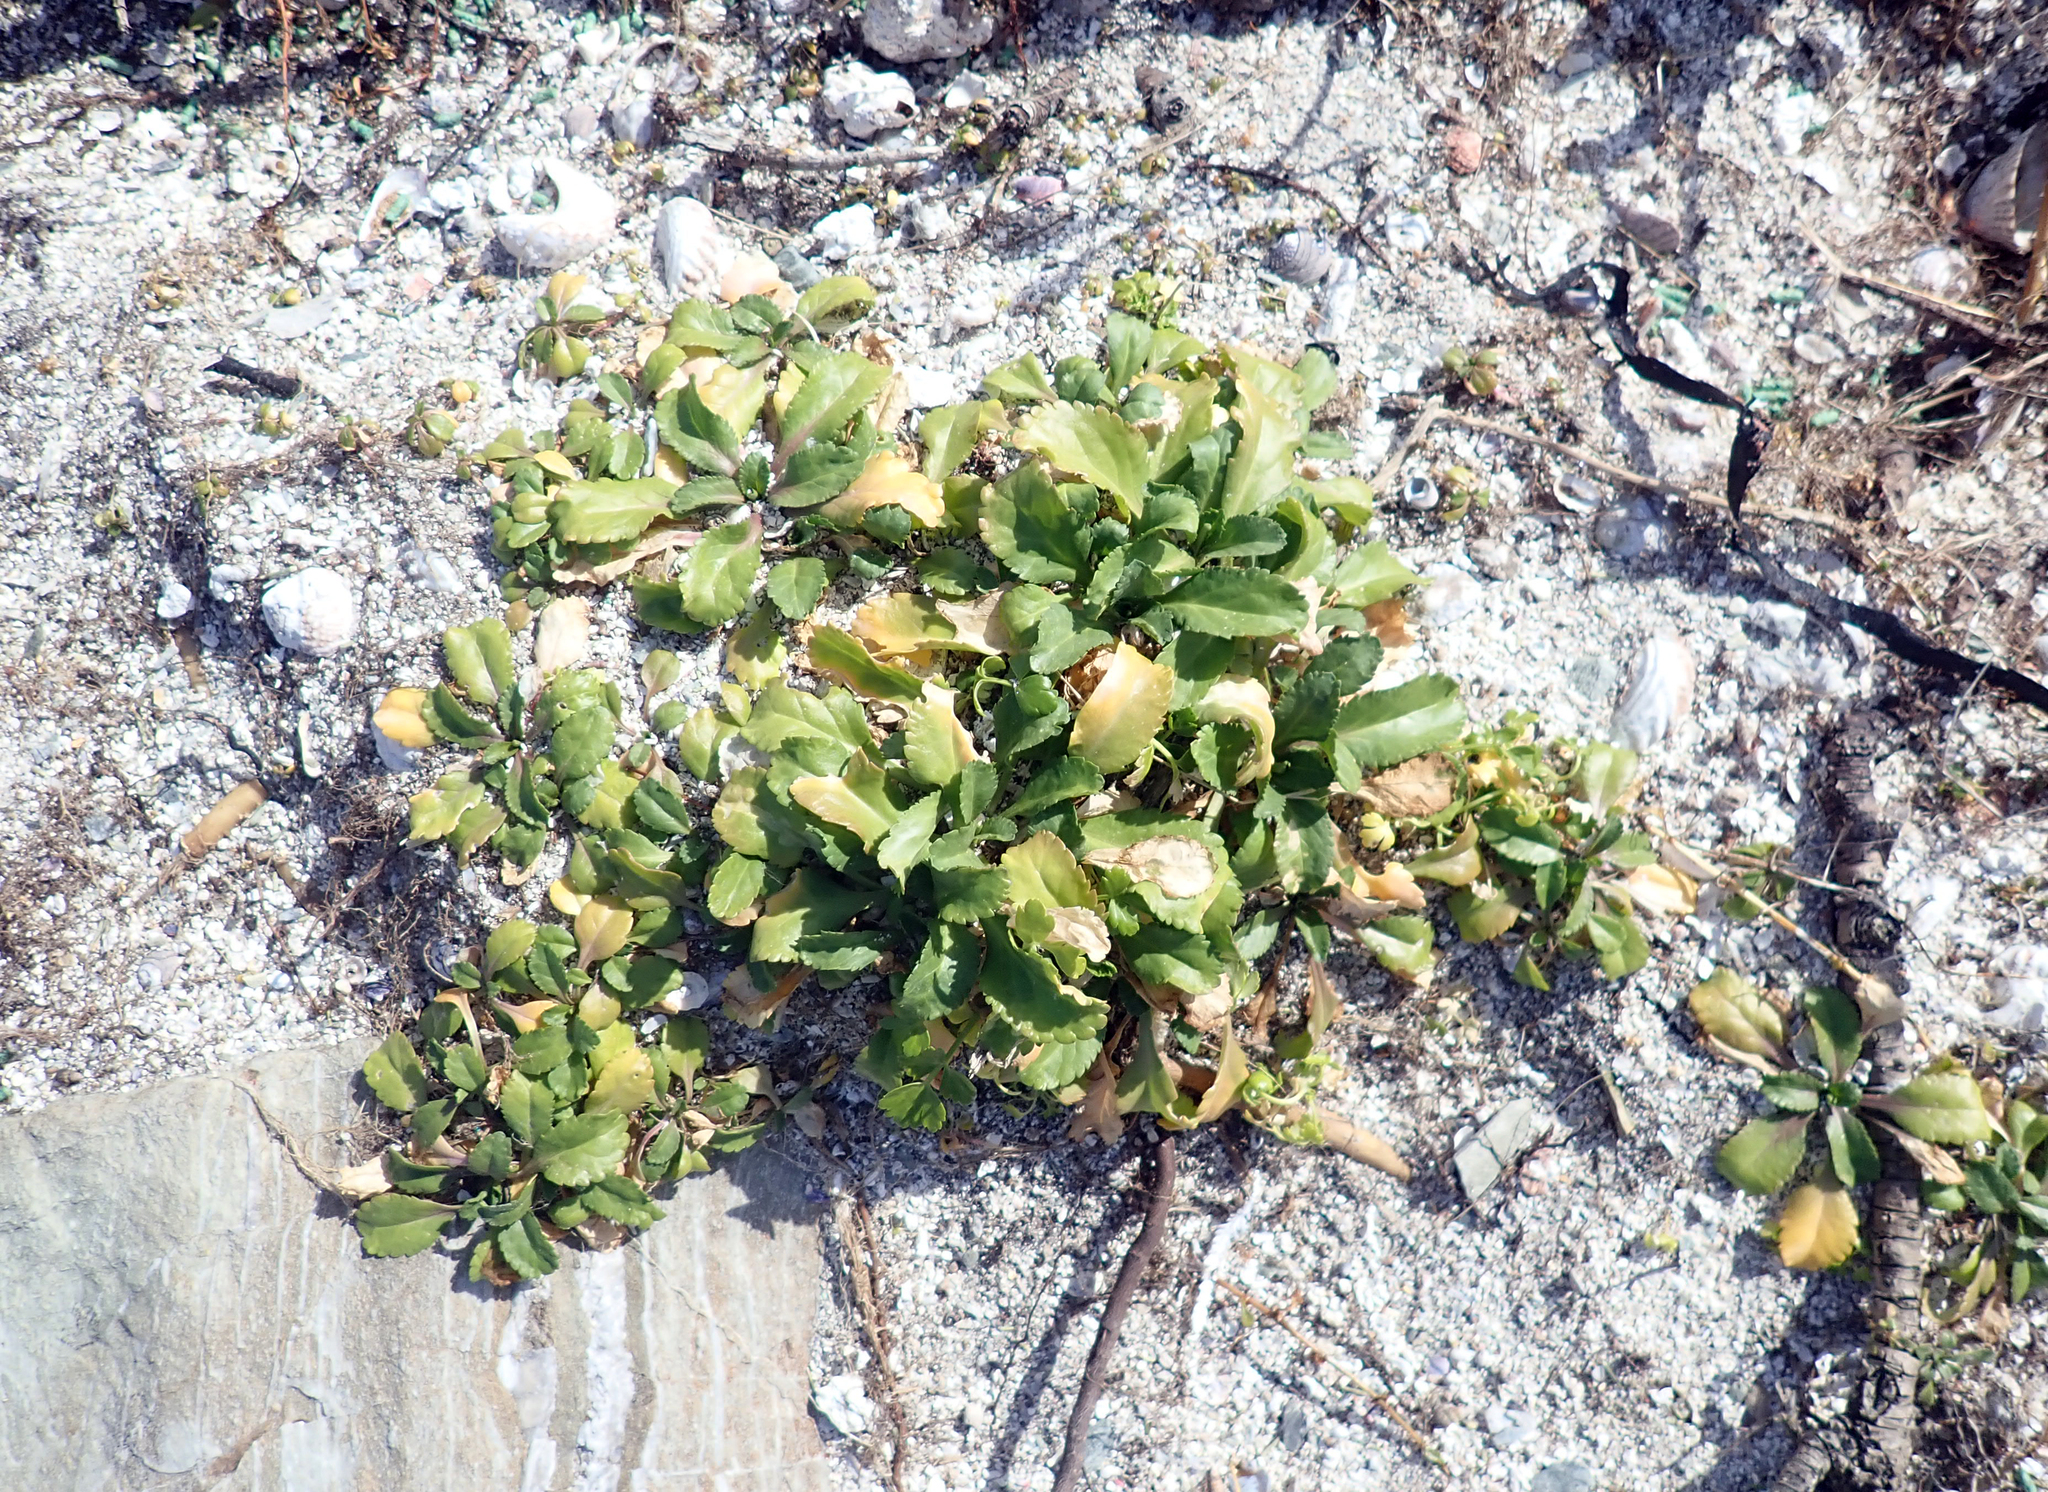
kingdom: Plantae
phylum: Tracheophyta
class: Magnoliopsida
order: Brassicales
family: Brassicaceae
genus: Lepidium
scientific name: Lepidium rekohuense
